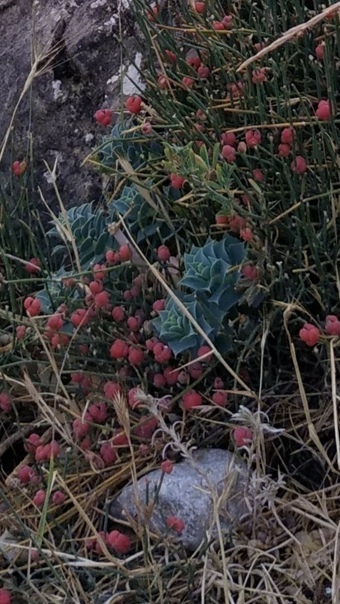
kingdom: Plantae
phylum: Tracheophyta
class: Gnetopsida
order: Ephedrales
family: Ephedraceae
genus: Ephedra
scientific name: Ephedra distachya
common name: Sea grape
